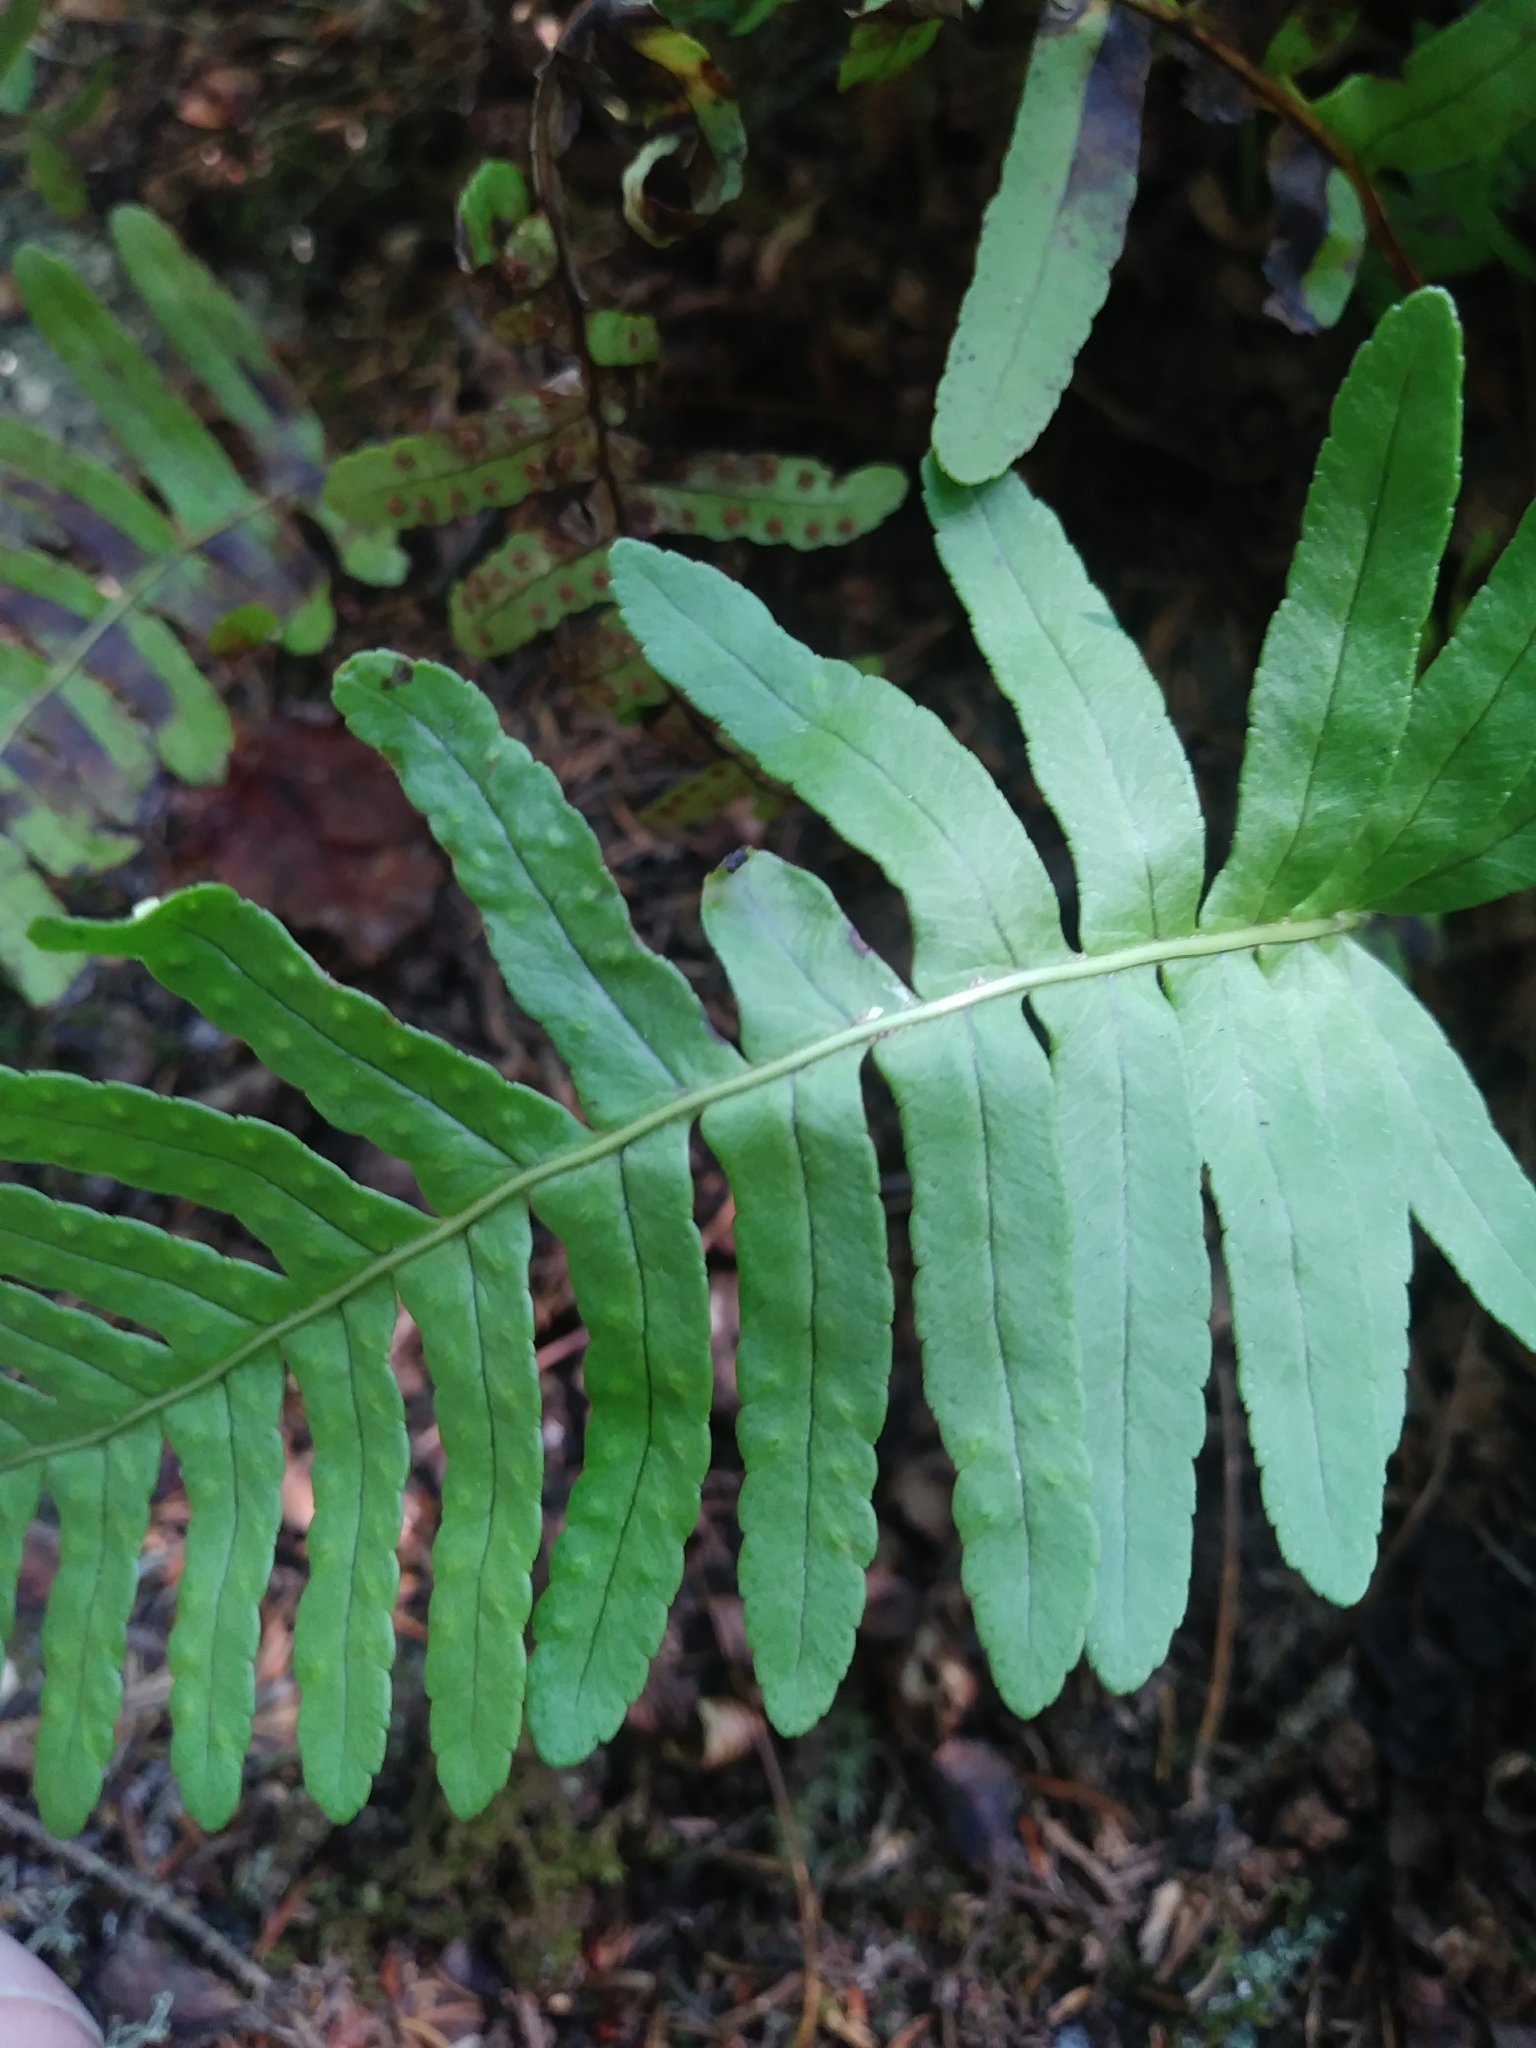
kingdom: Plantae
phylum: Tracheophyta
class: Polypodiopsida
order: Polypodiales
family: Polypodiaceae
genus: Polypodium
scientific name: Polypodium virginianum
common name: American wall fern
